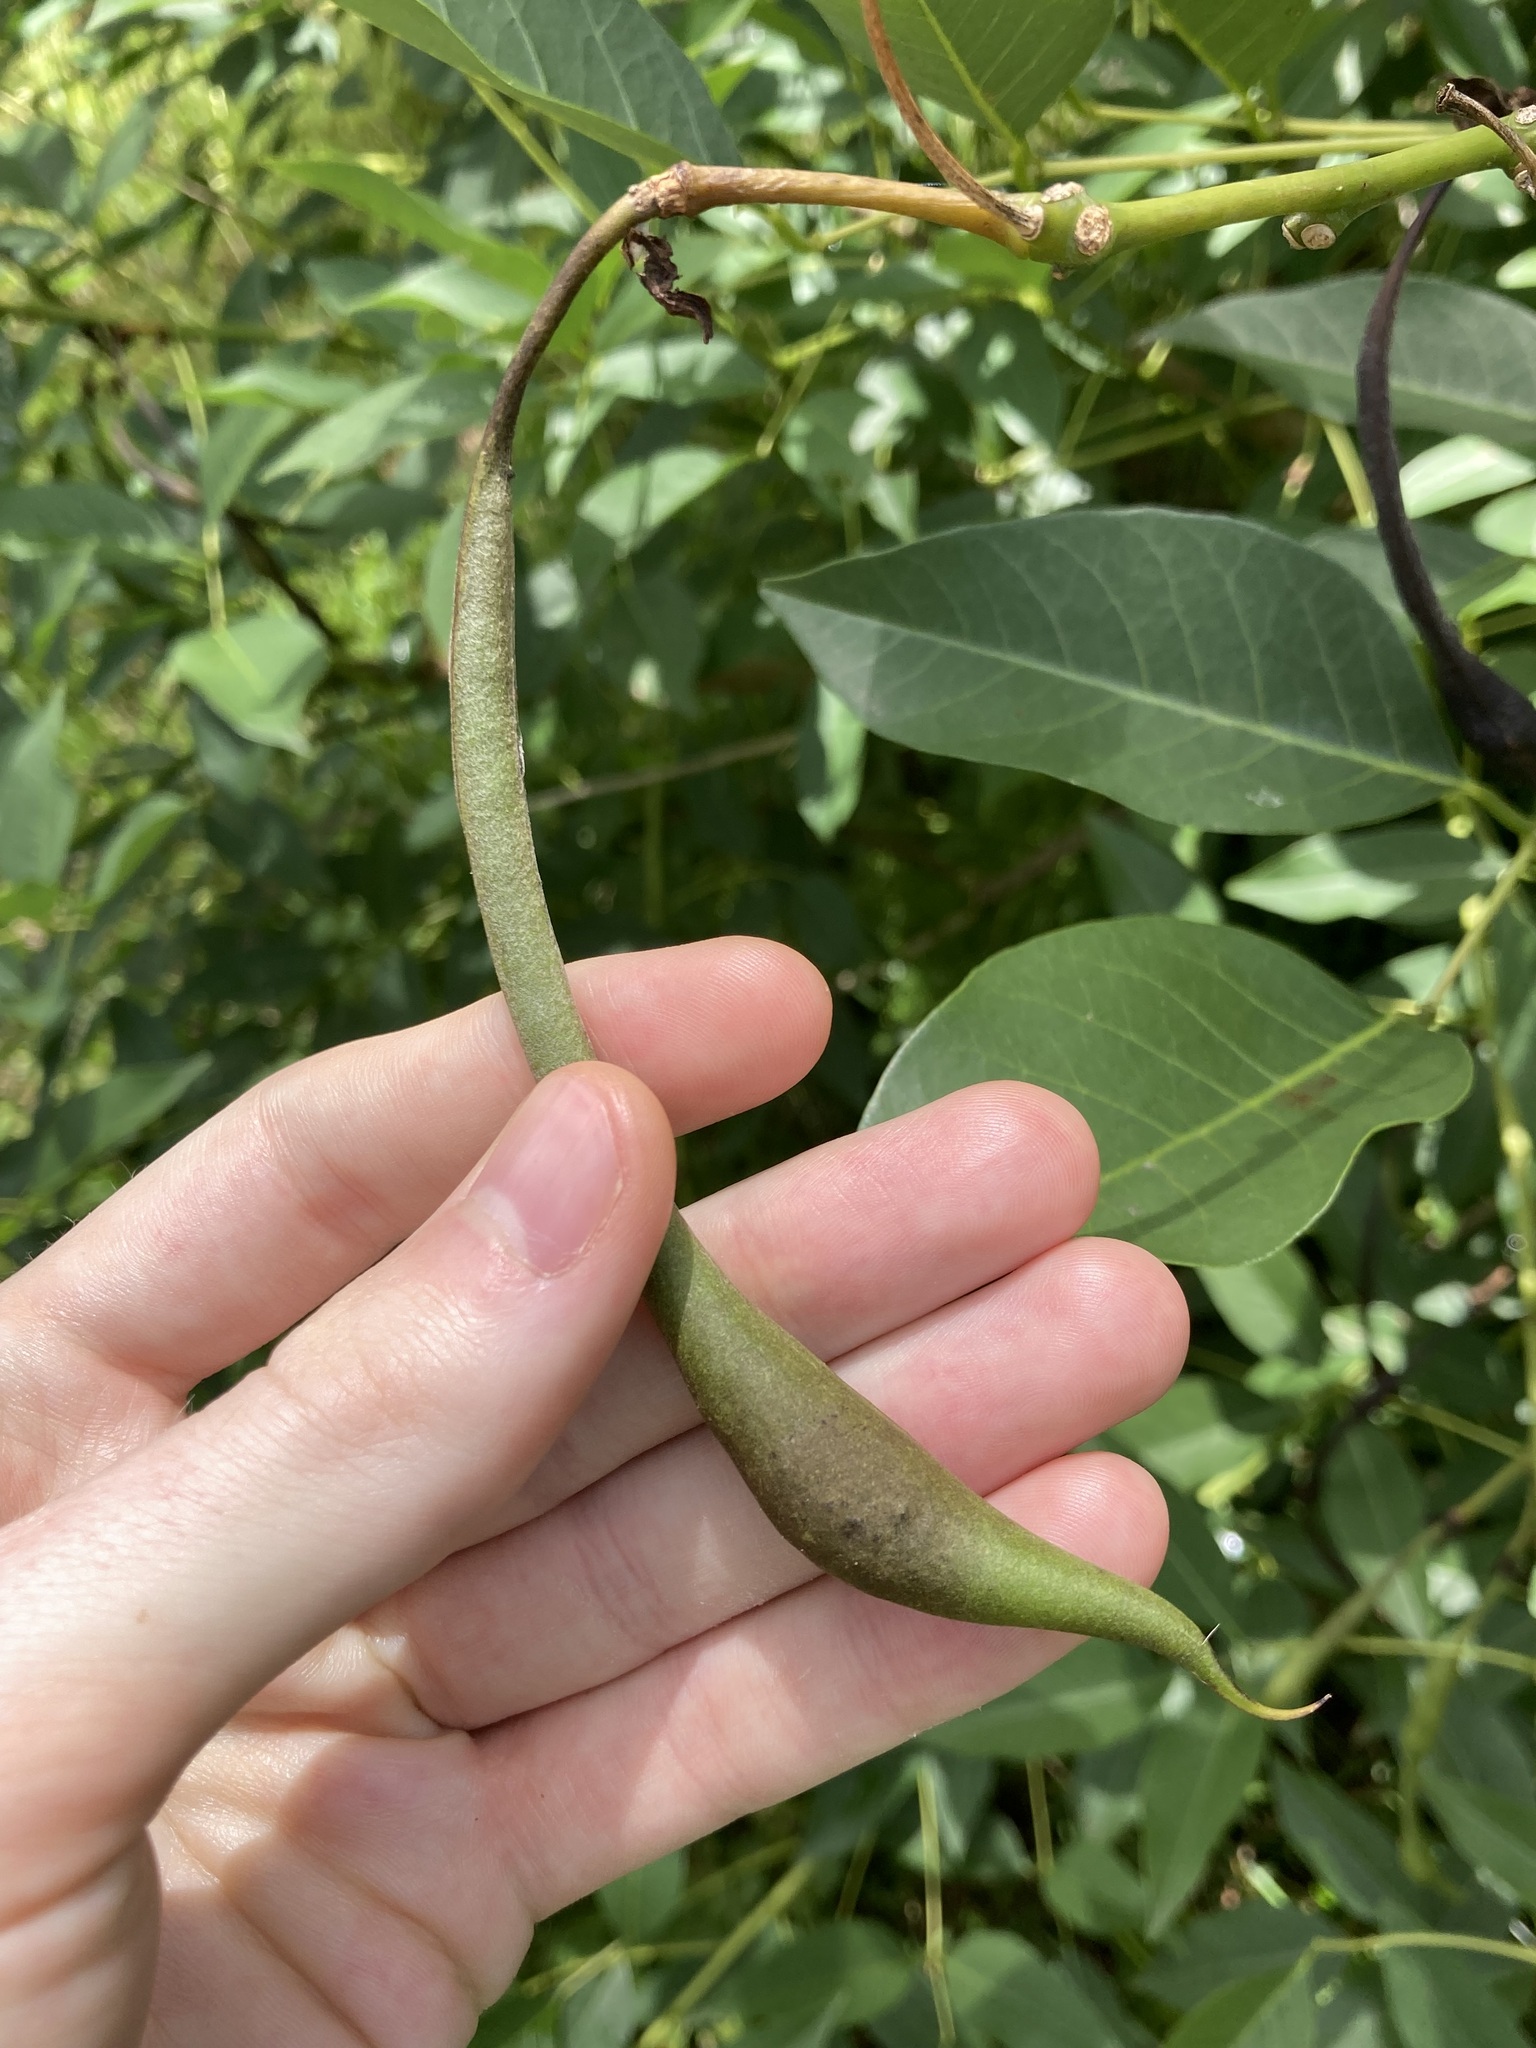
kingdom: Plantae
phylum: Tracheophyta
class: Magnoliopsida
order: Fabales
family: Fabaceae
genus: Erythrina
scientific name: Erythrina crista-galli
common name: Cockspur coral tree
